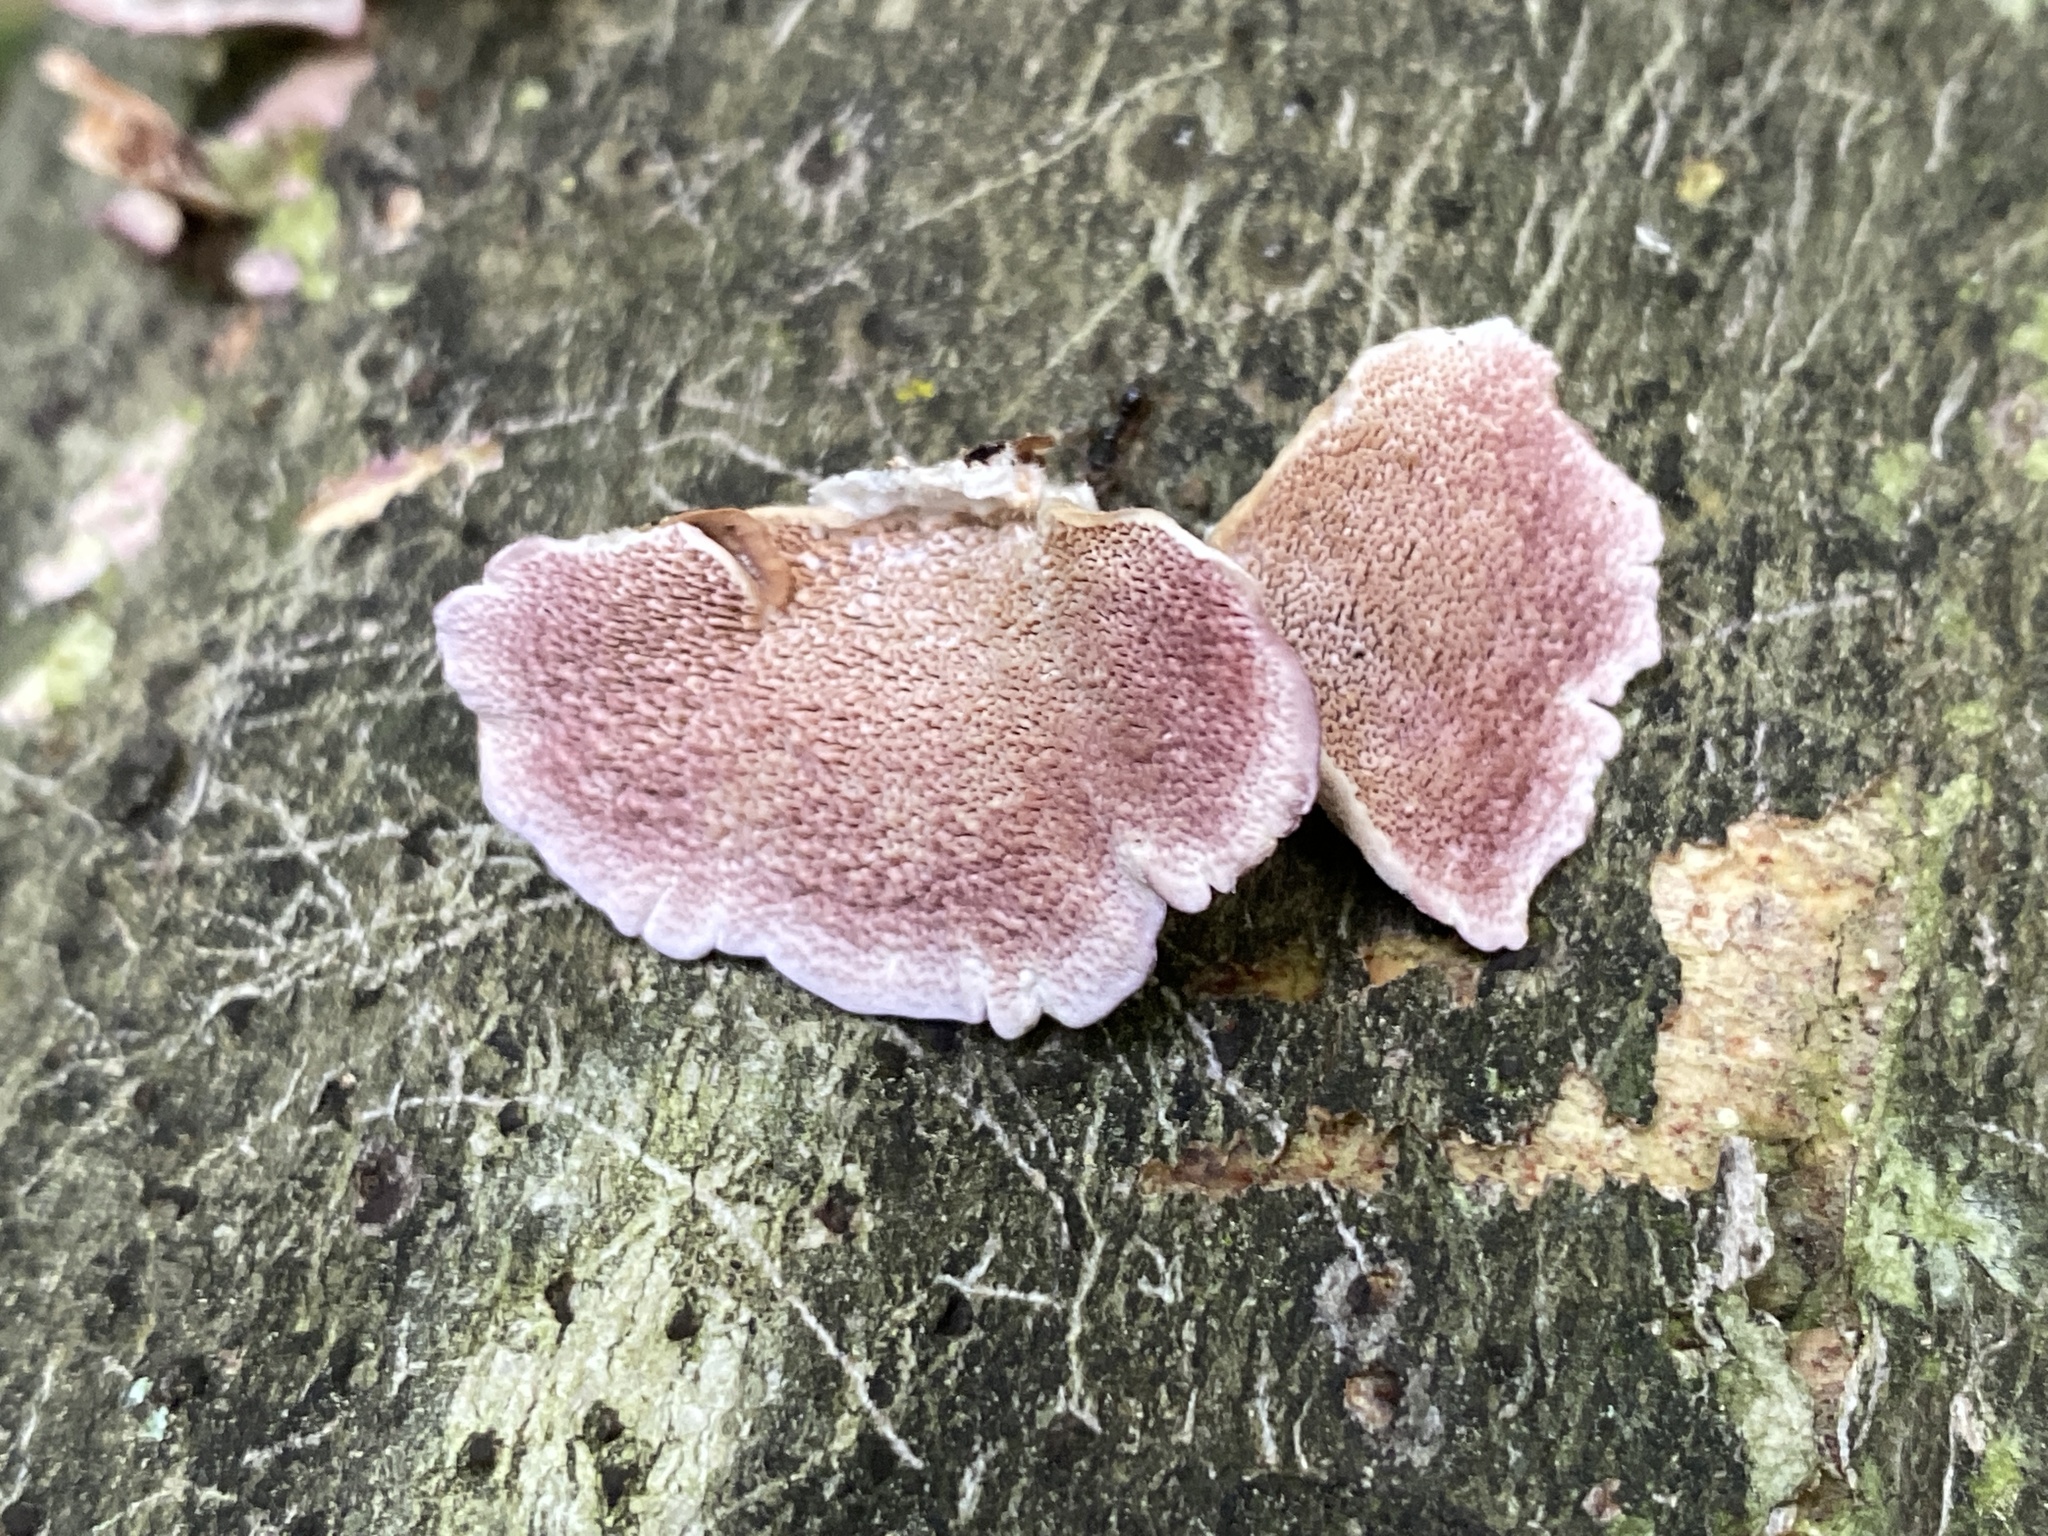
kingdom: Fungi
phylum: Basidiomycota
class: Agaricomycetes
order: Hymenochaetales
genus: Trichaptum
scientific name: Trichaptum biforme
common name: Violet-toothed polypore
